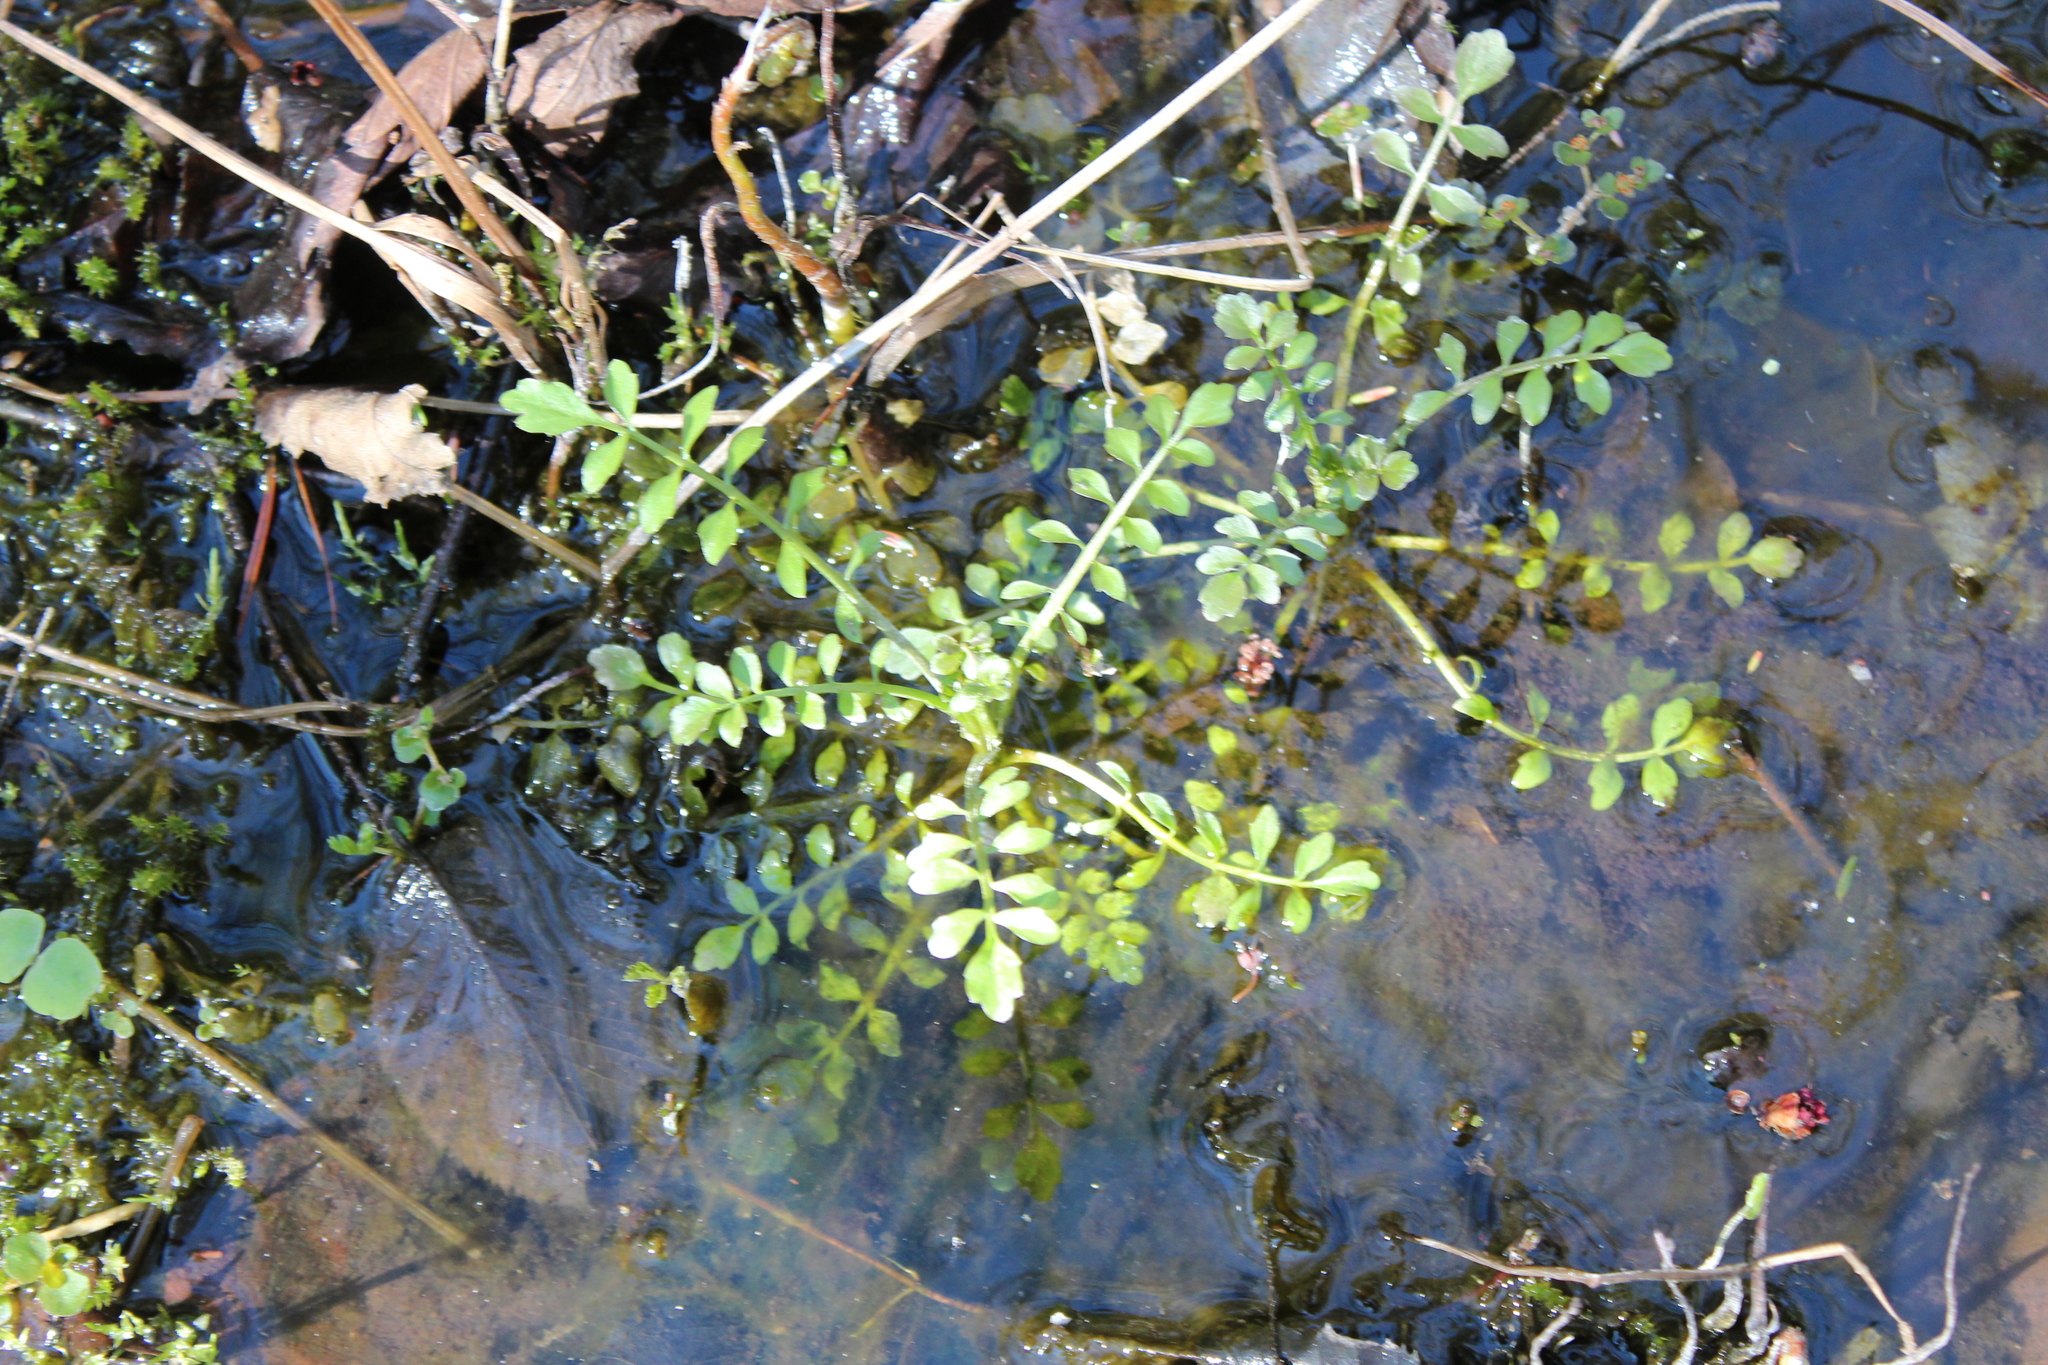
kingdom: Plantae
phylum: Tracheophyta
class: Magnoliopsida
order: Brassicales
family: Brassicaceae
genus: Cardamine
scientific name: Cardamine pensylvanica
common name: Pennsylvania bittercress
